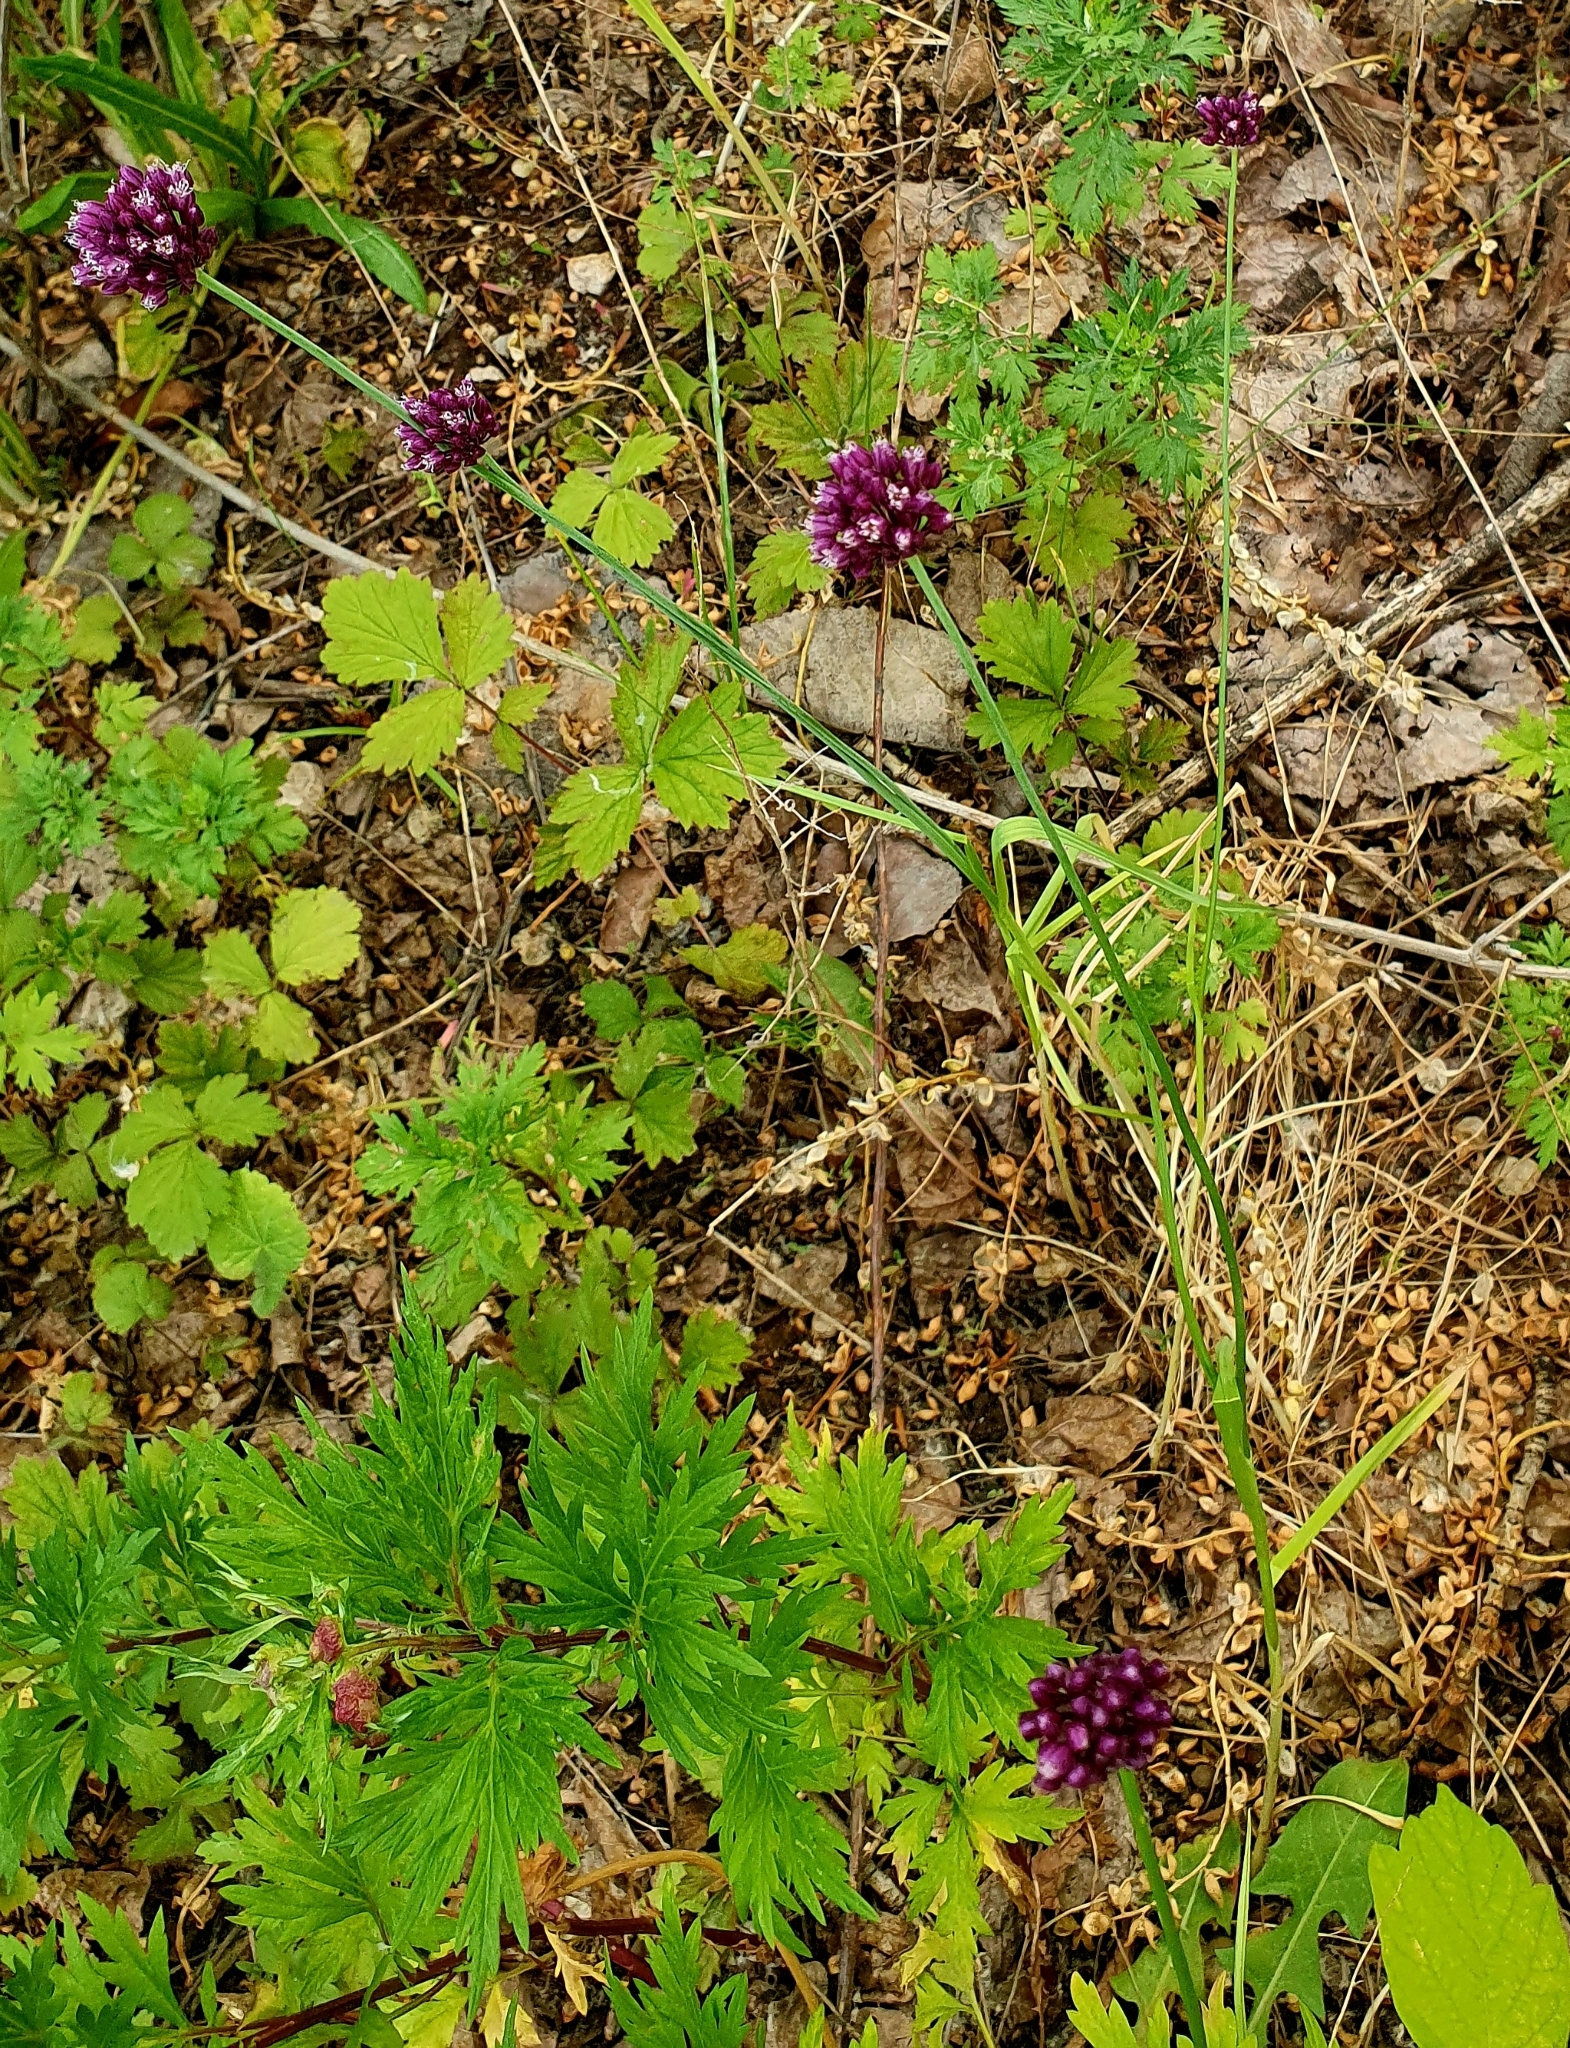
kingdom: Plantae
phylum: Tracheophyta
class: Liliopsida
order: Asparagales
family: Amaryllidaceae
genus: Allium
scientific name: Allium rotundum
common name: Sand leek
